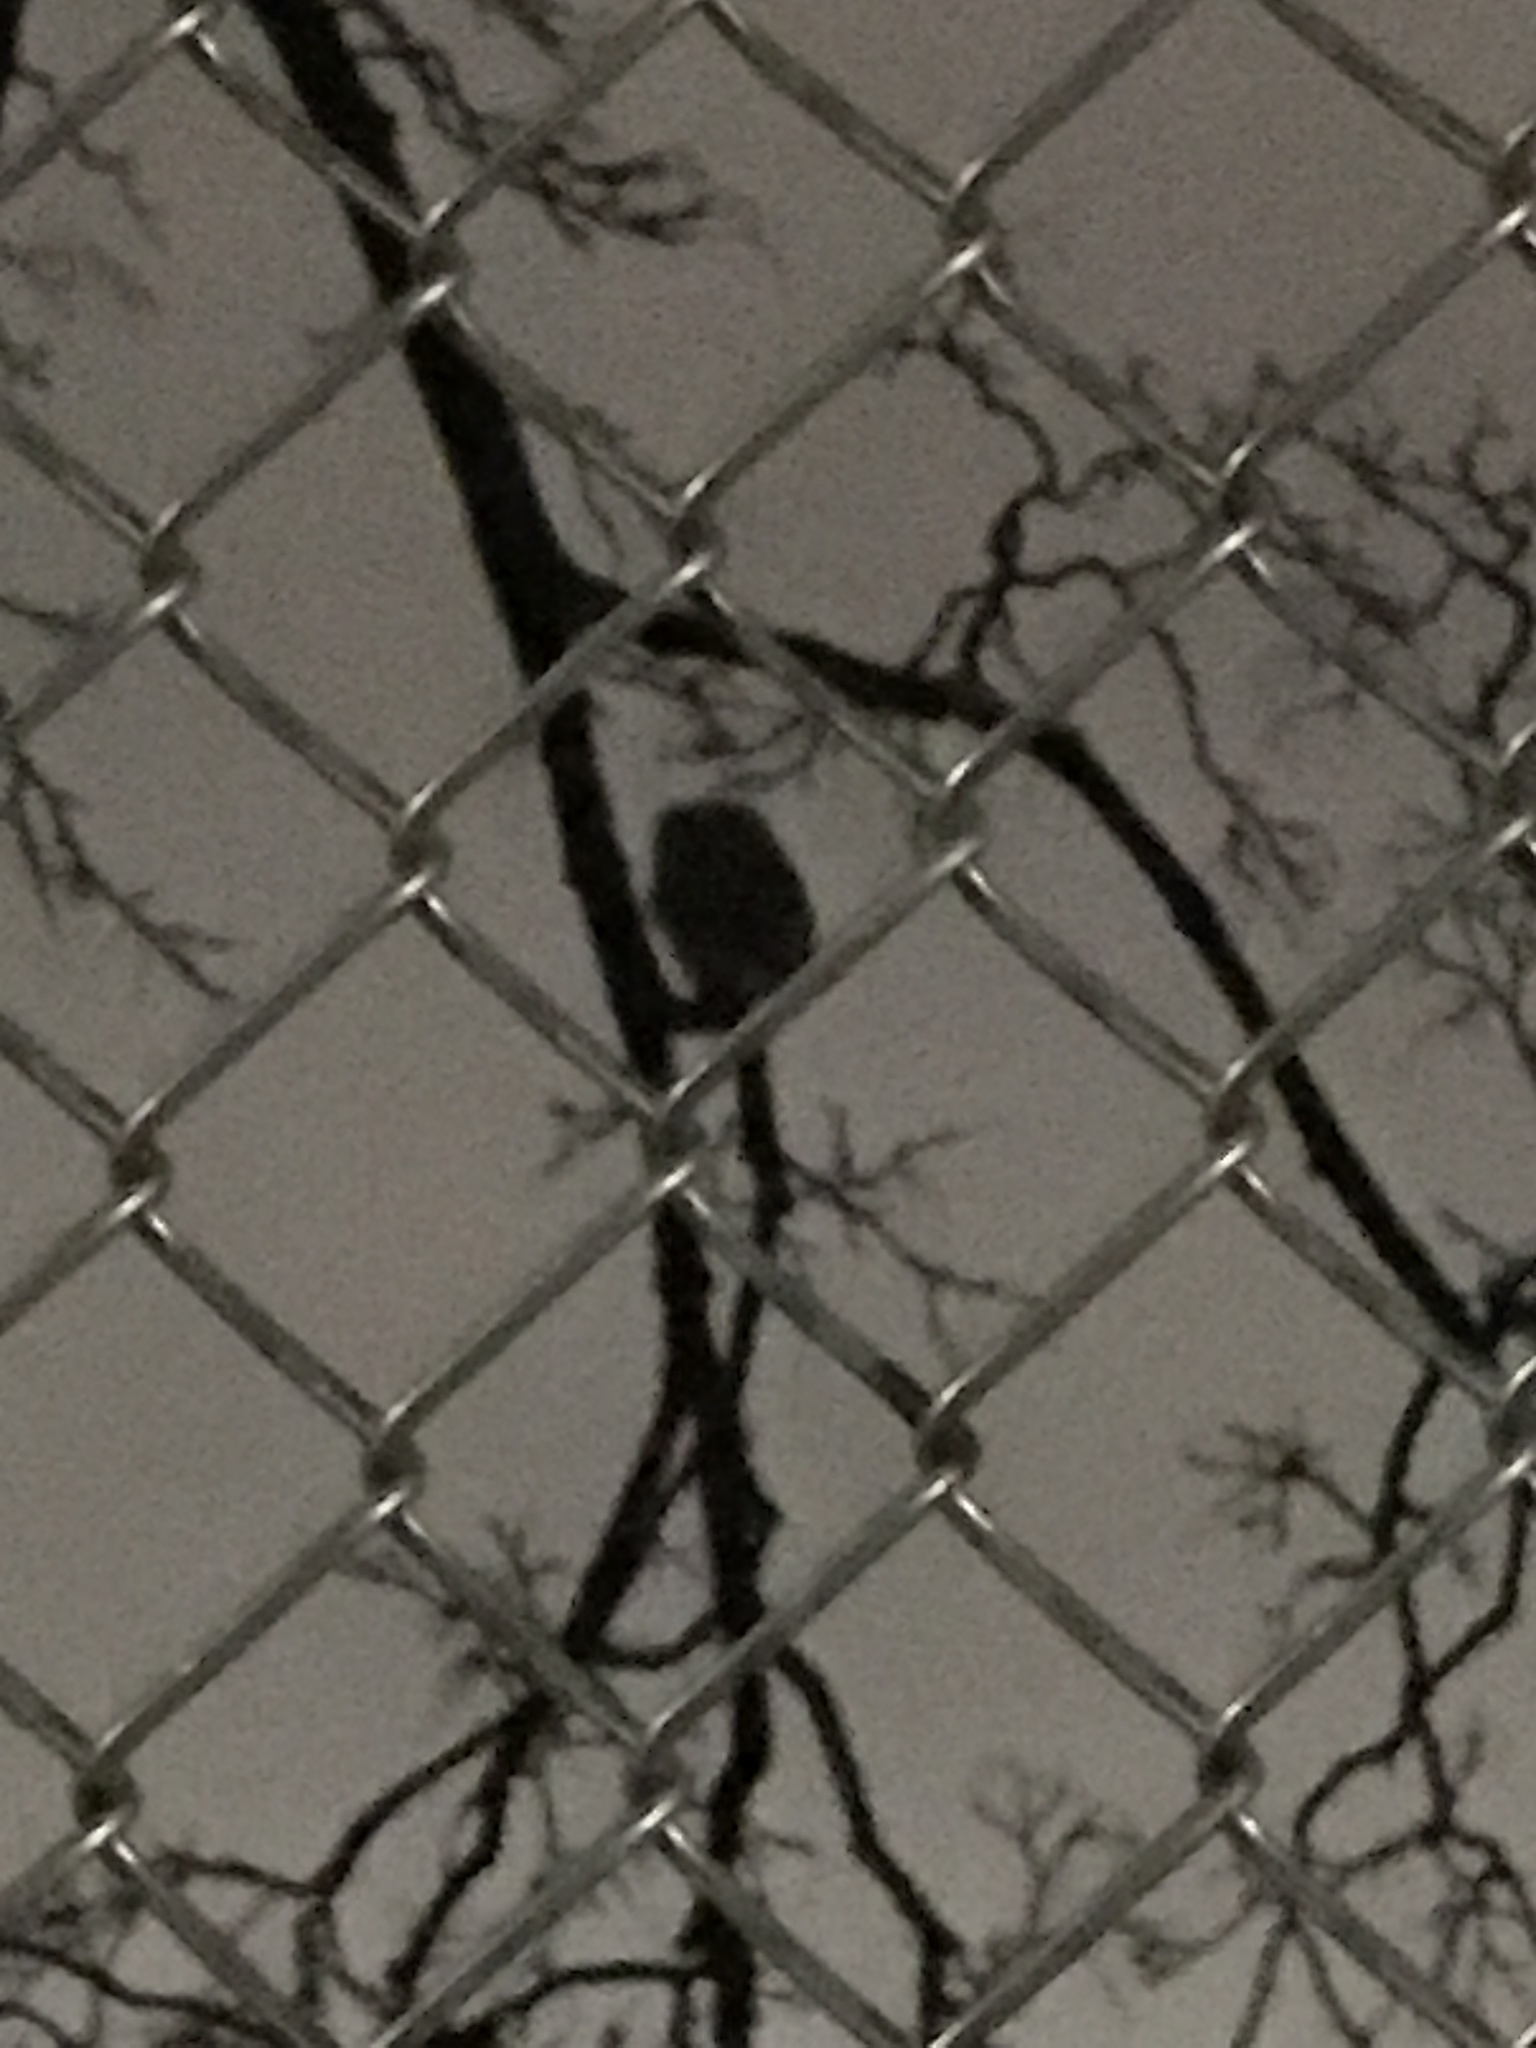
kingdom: Animalia
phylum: Chordata
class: Aves
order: Strigiformes
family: Strigidae
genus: Aegolius
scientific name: Aegolius acadicus
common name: Northern saw-whet owl
